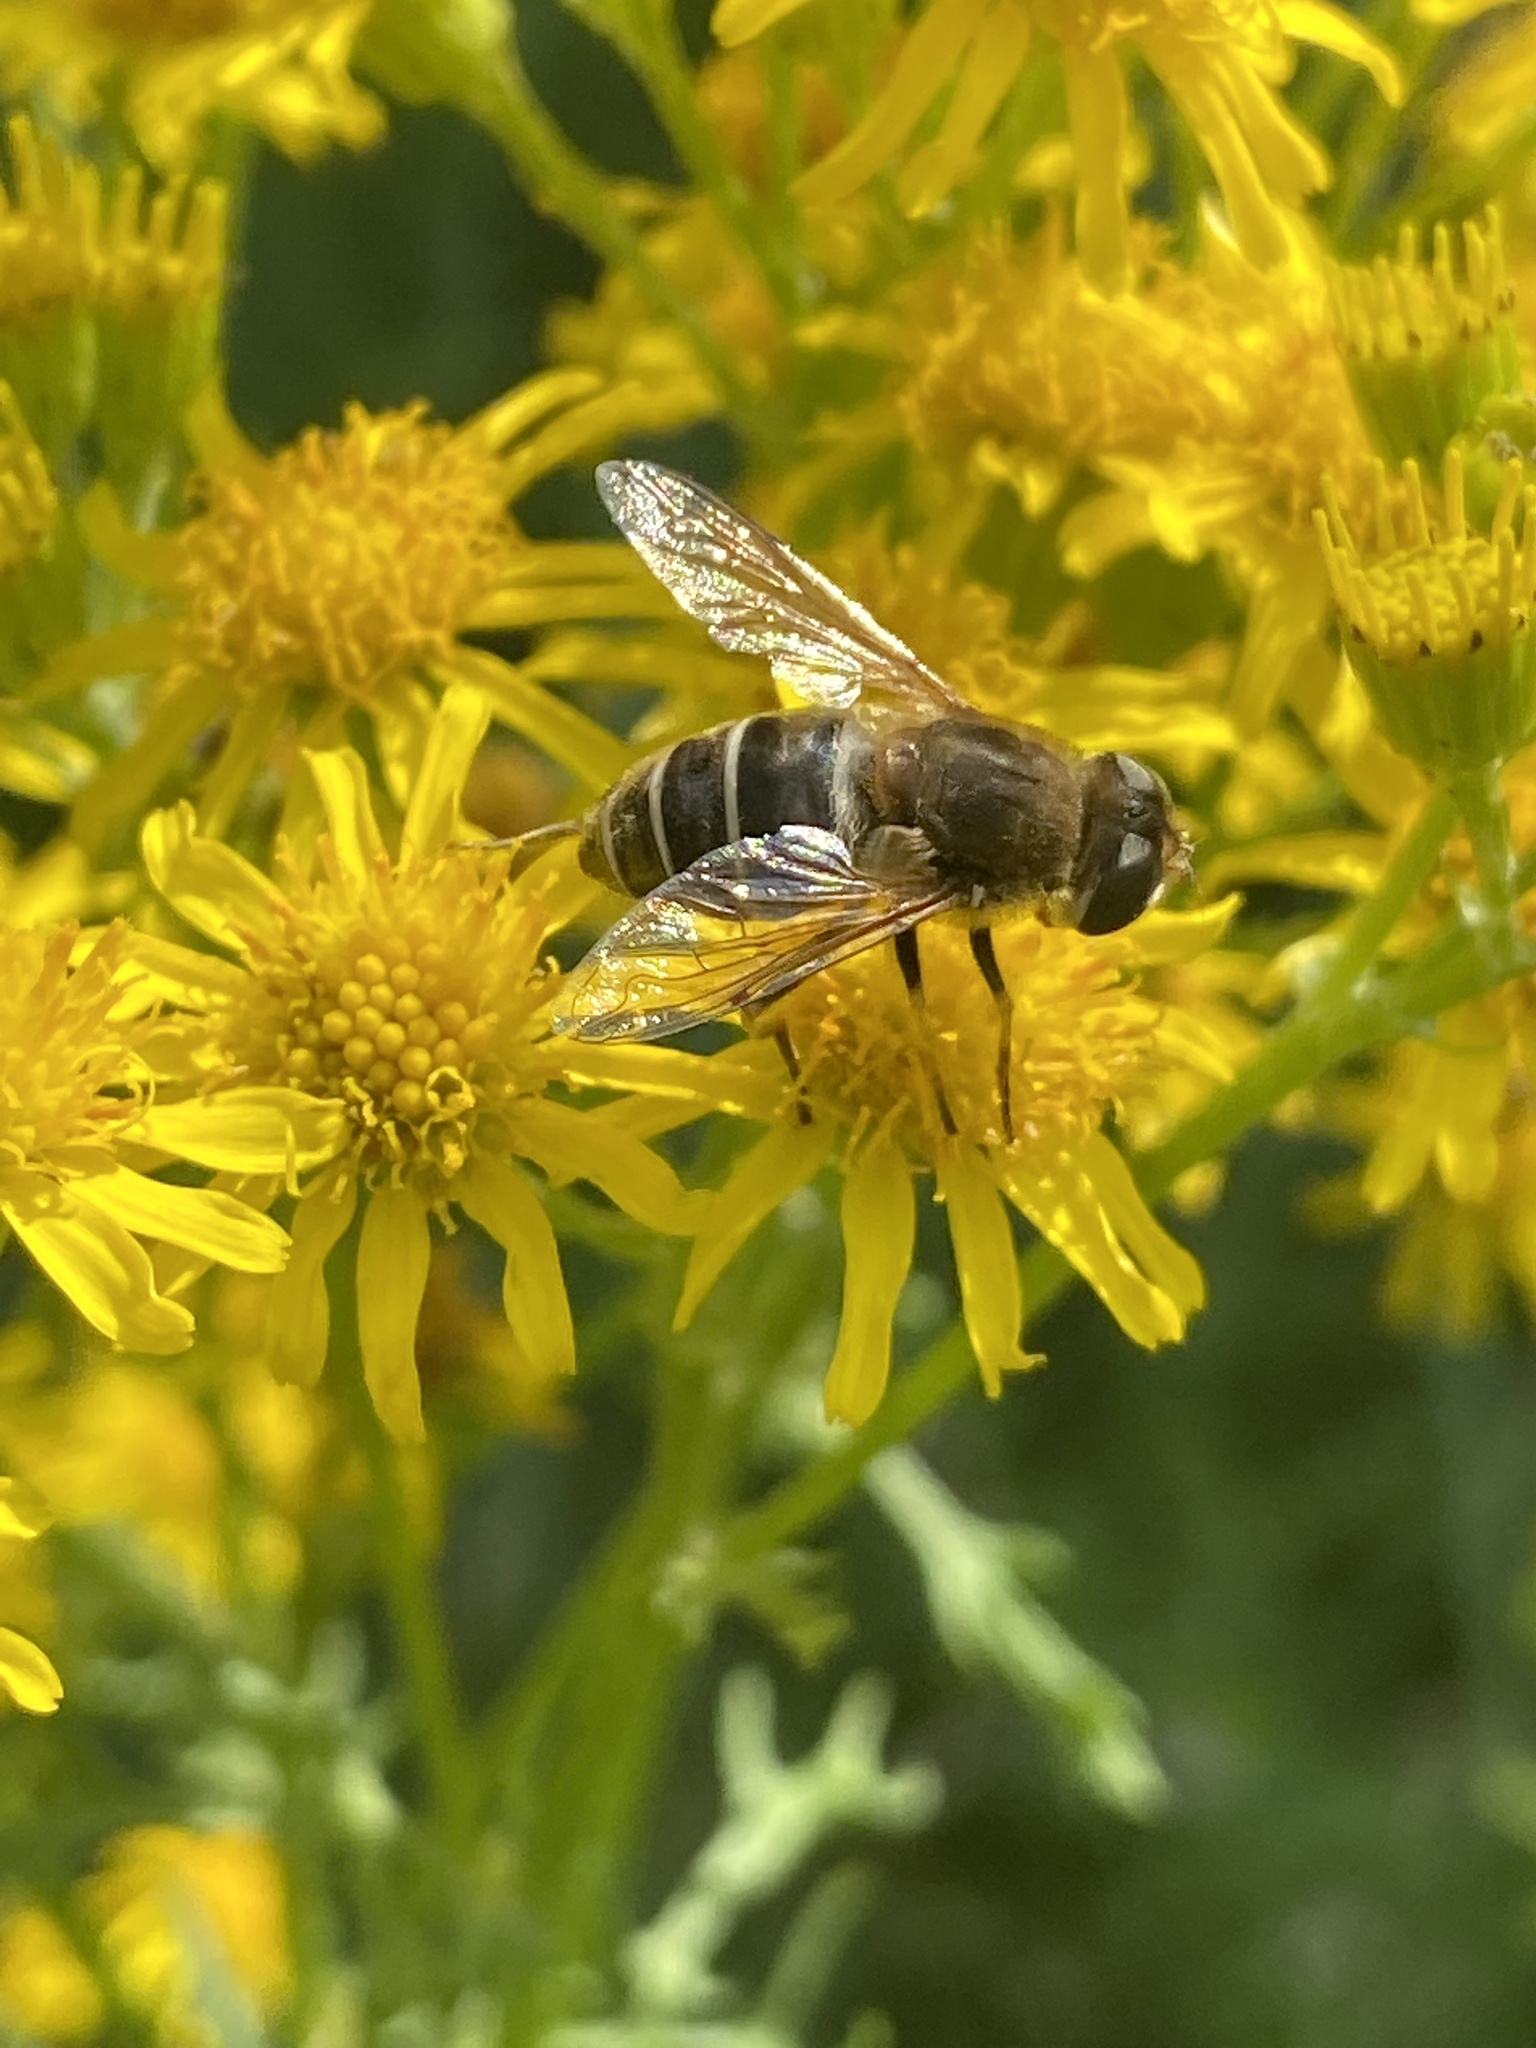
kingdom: Animalia
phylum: Arthropoda
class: Insecta
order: Diptera
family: Syrphidae
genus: Eristalis
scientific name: Eristalis nemorum
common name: Orange-spined drone fly
